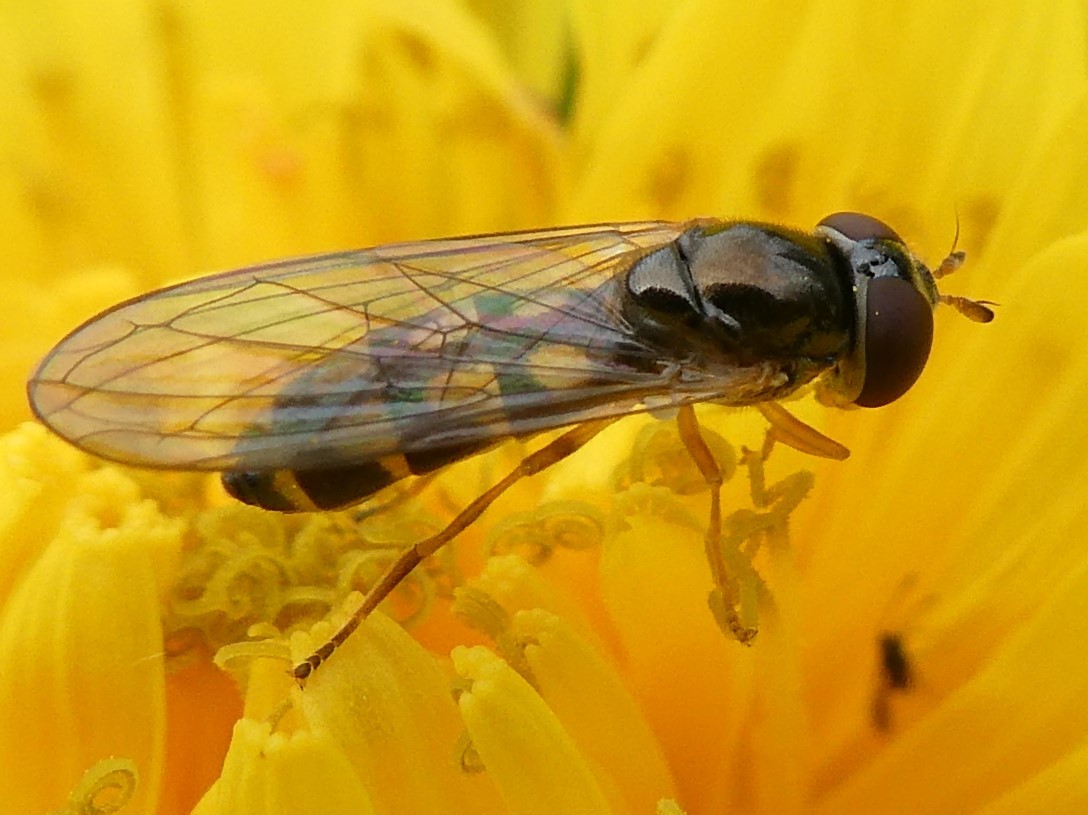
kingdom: Animalia
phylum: Arthropoda
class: Insecta
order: Diptera
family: Syrphidae
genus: Melanostoma
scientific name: Melanostoma mellina
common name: Hover fly
